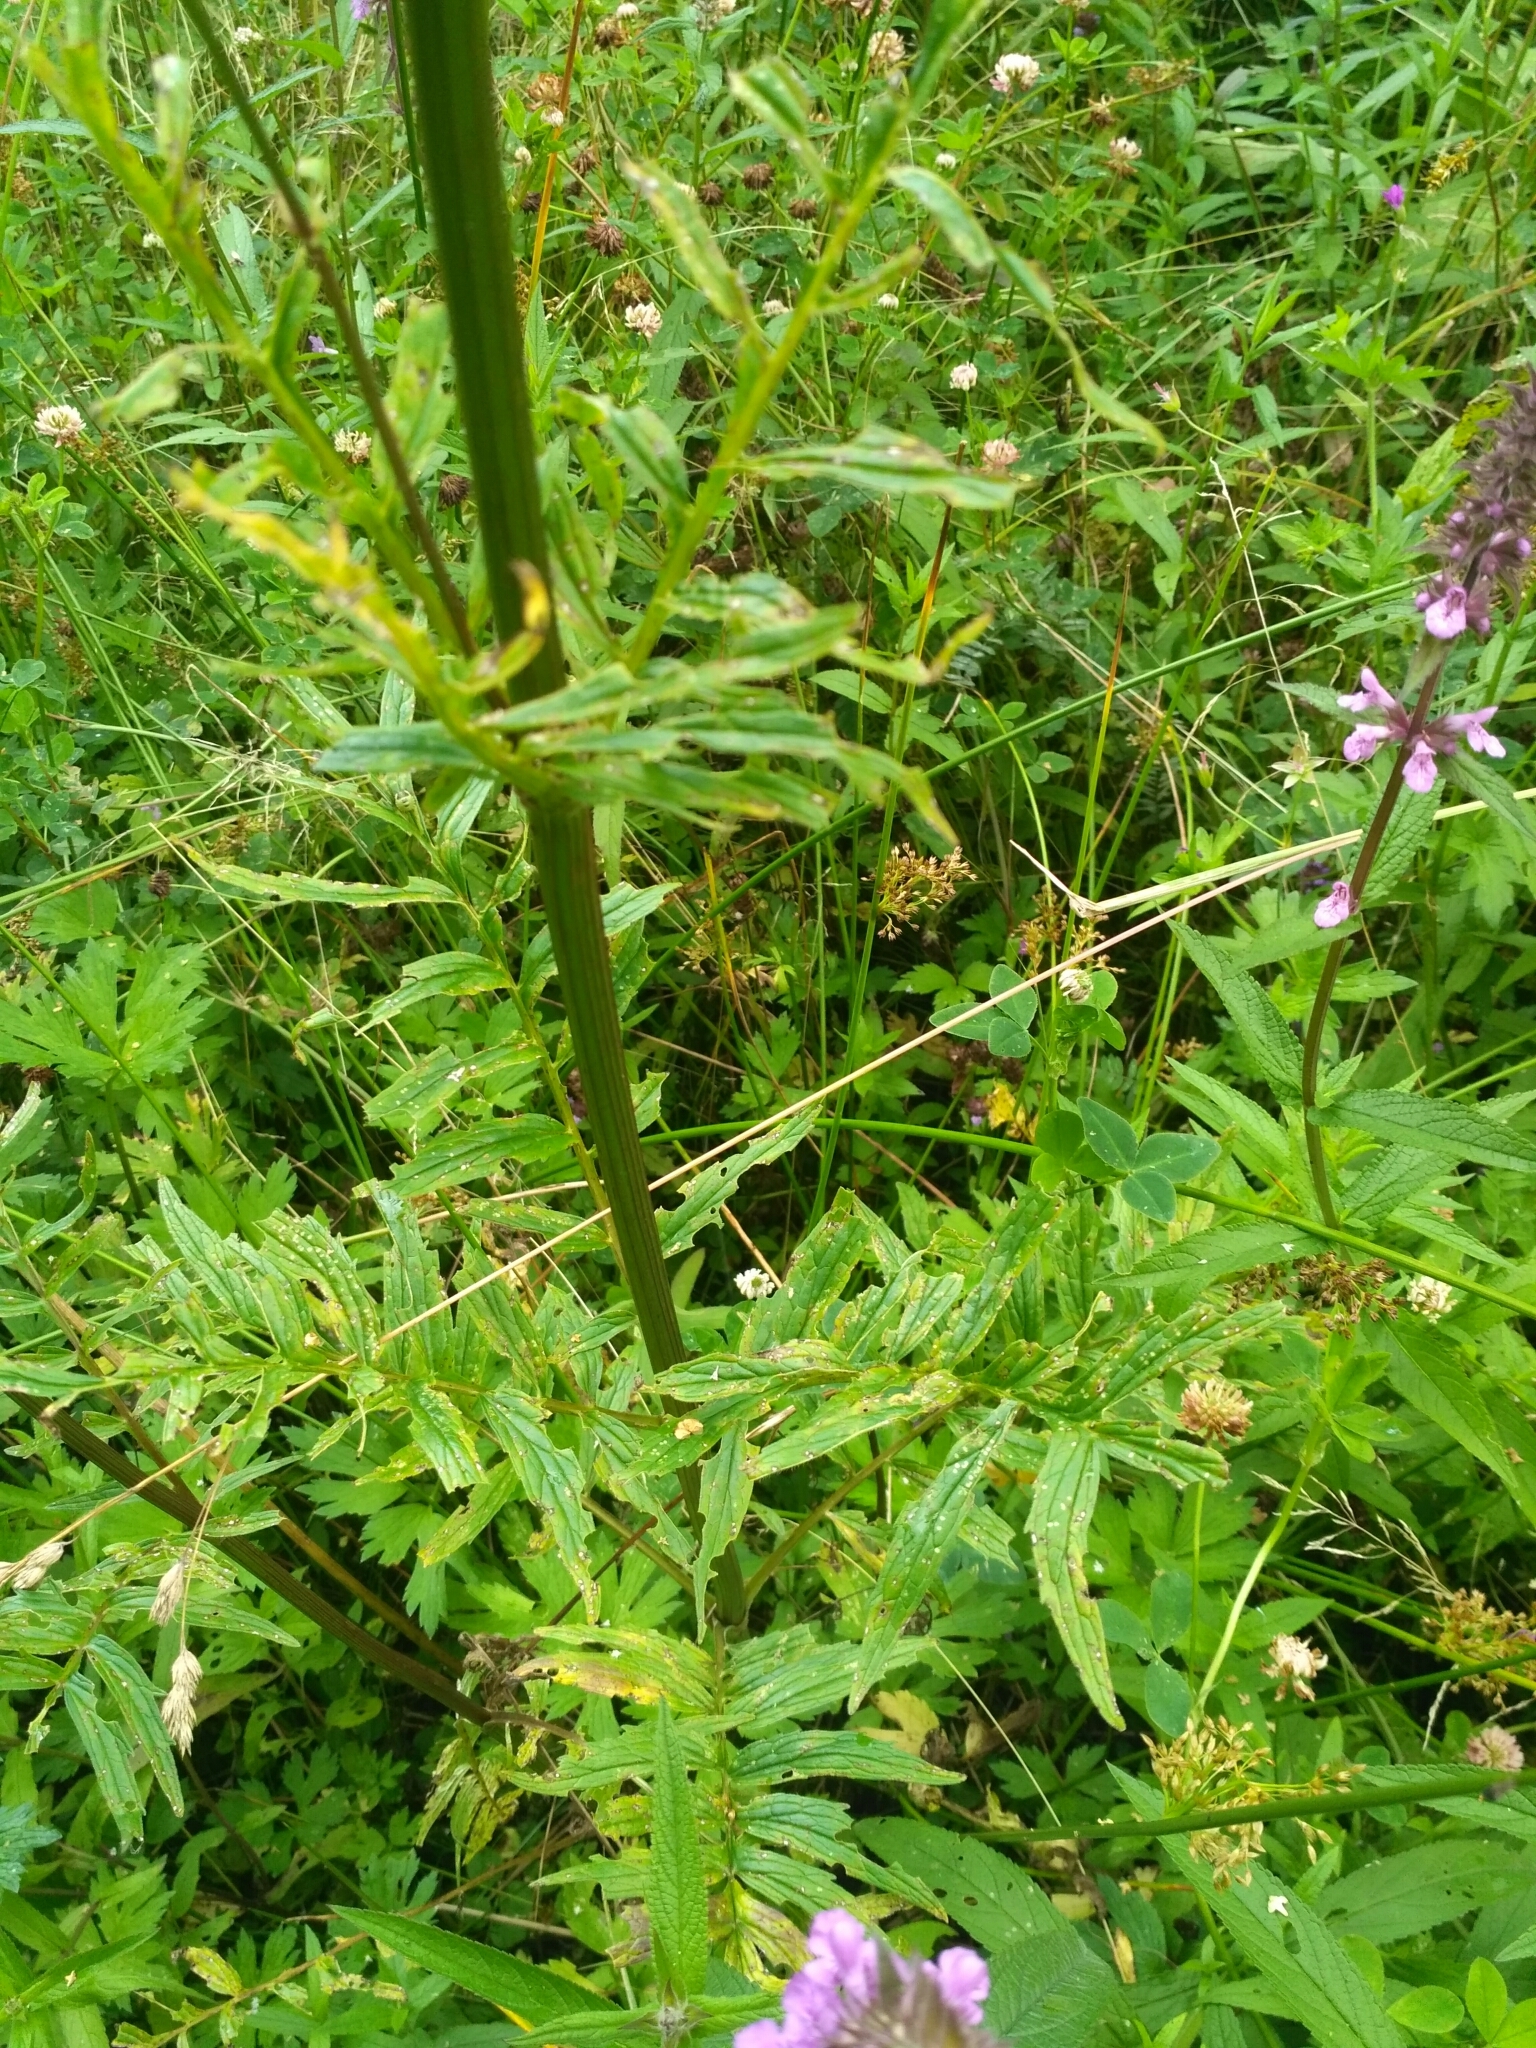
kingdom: Plantae
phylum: Tracheophyta
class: Magnoliopsida
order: Dipsacales
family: Caprifoliaceae
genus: Valeriana
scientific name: Valeriana officinalis
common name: Common valerian
